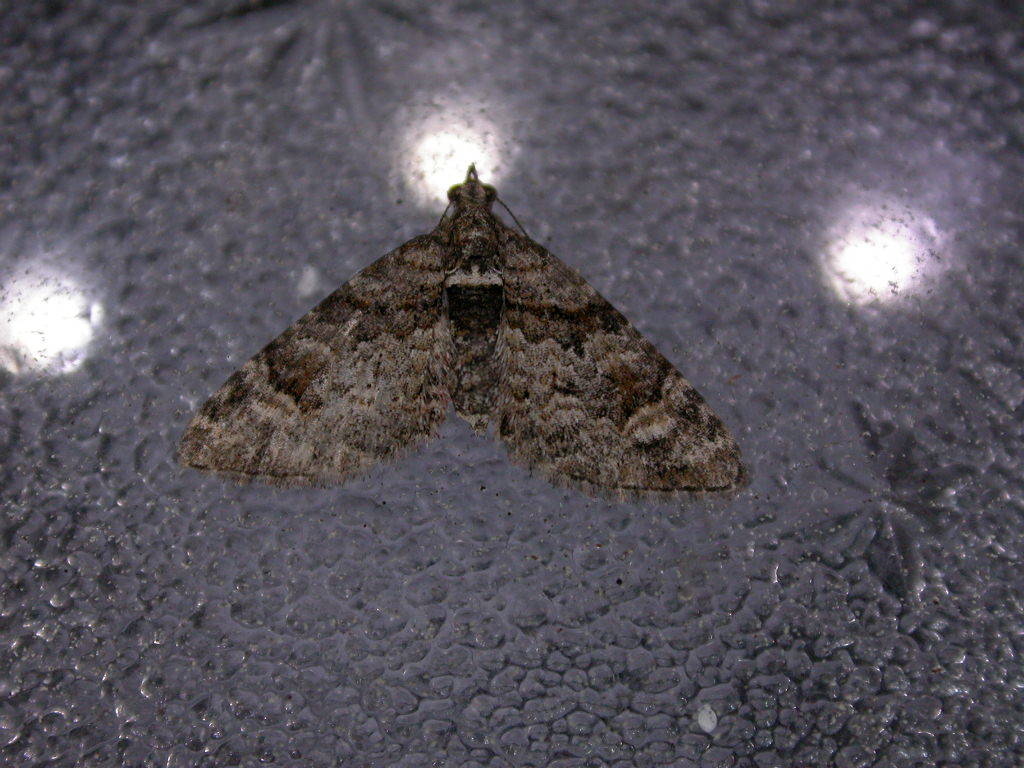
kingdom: Animalia
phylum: Arthropoda
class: Insecta
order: Lepidoptera
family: Geometridae
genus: Phrissogonus
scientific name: Phrissogonus laticostata
